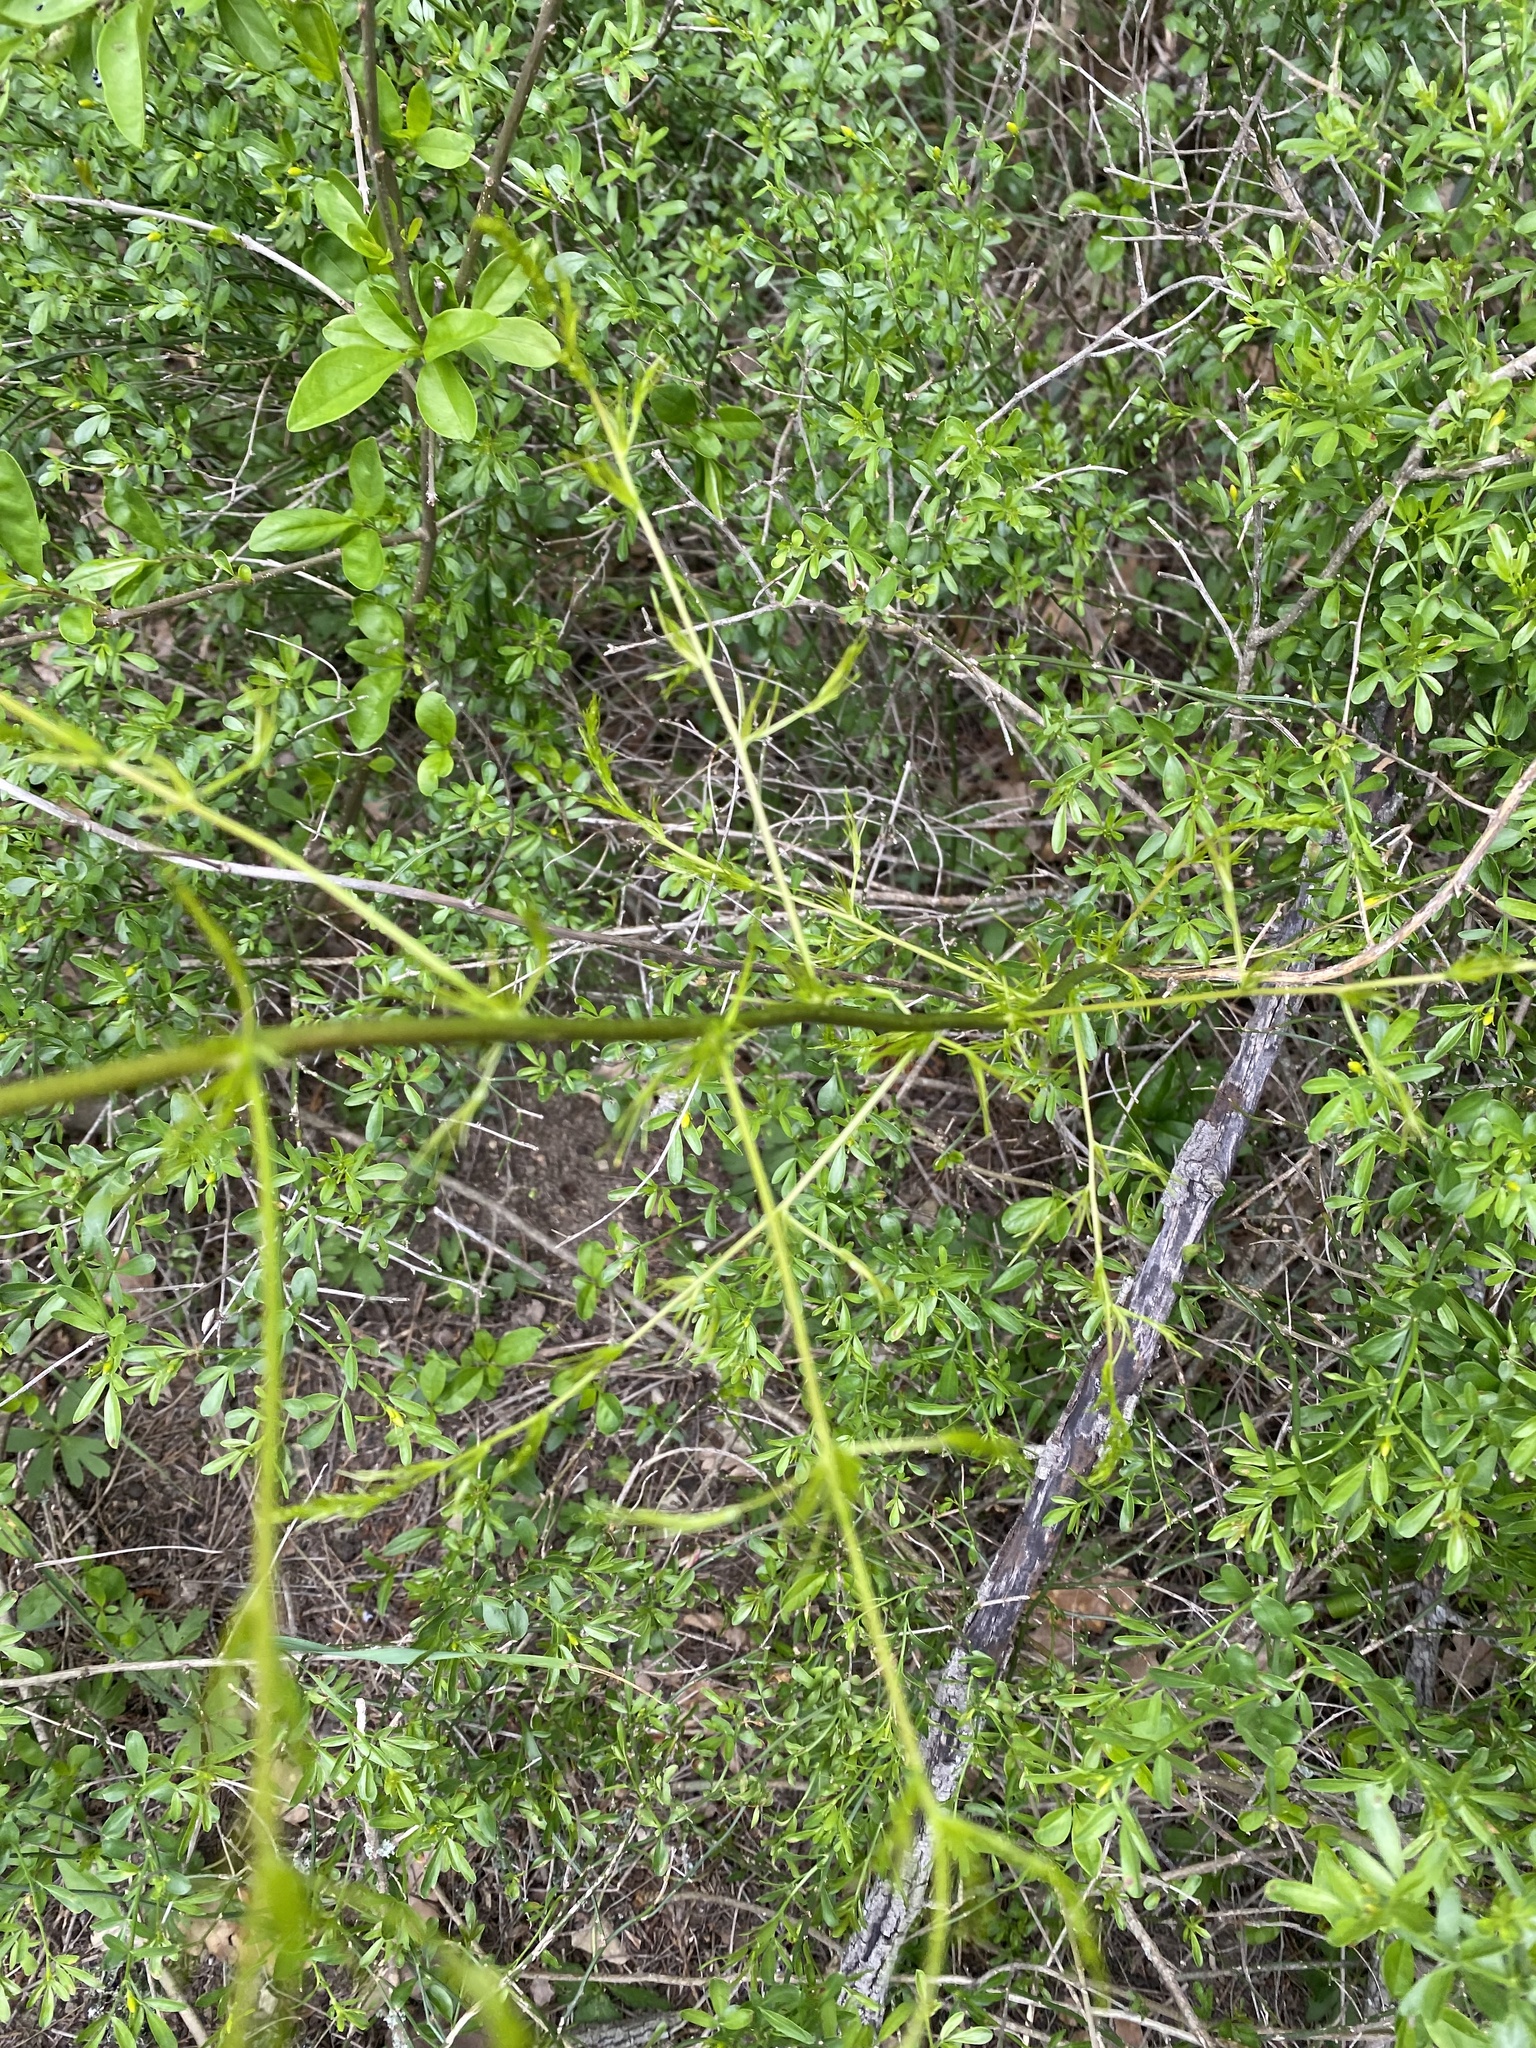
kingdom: Plantae
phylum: Tracheophyta
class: Liliopsida
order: Asparagales
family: Asparagaceae
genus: Asparagus
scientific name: Asparagus verticillatus
